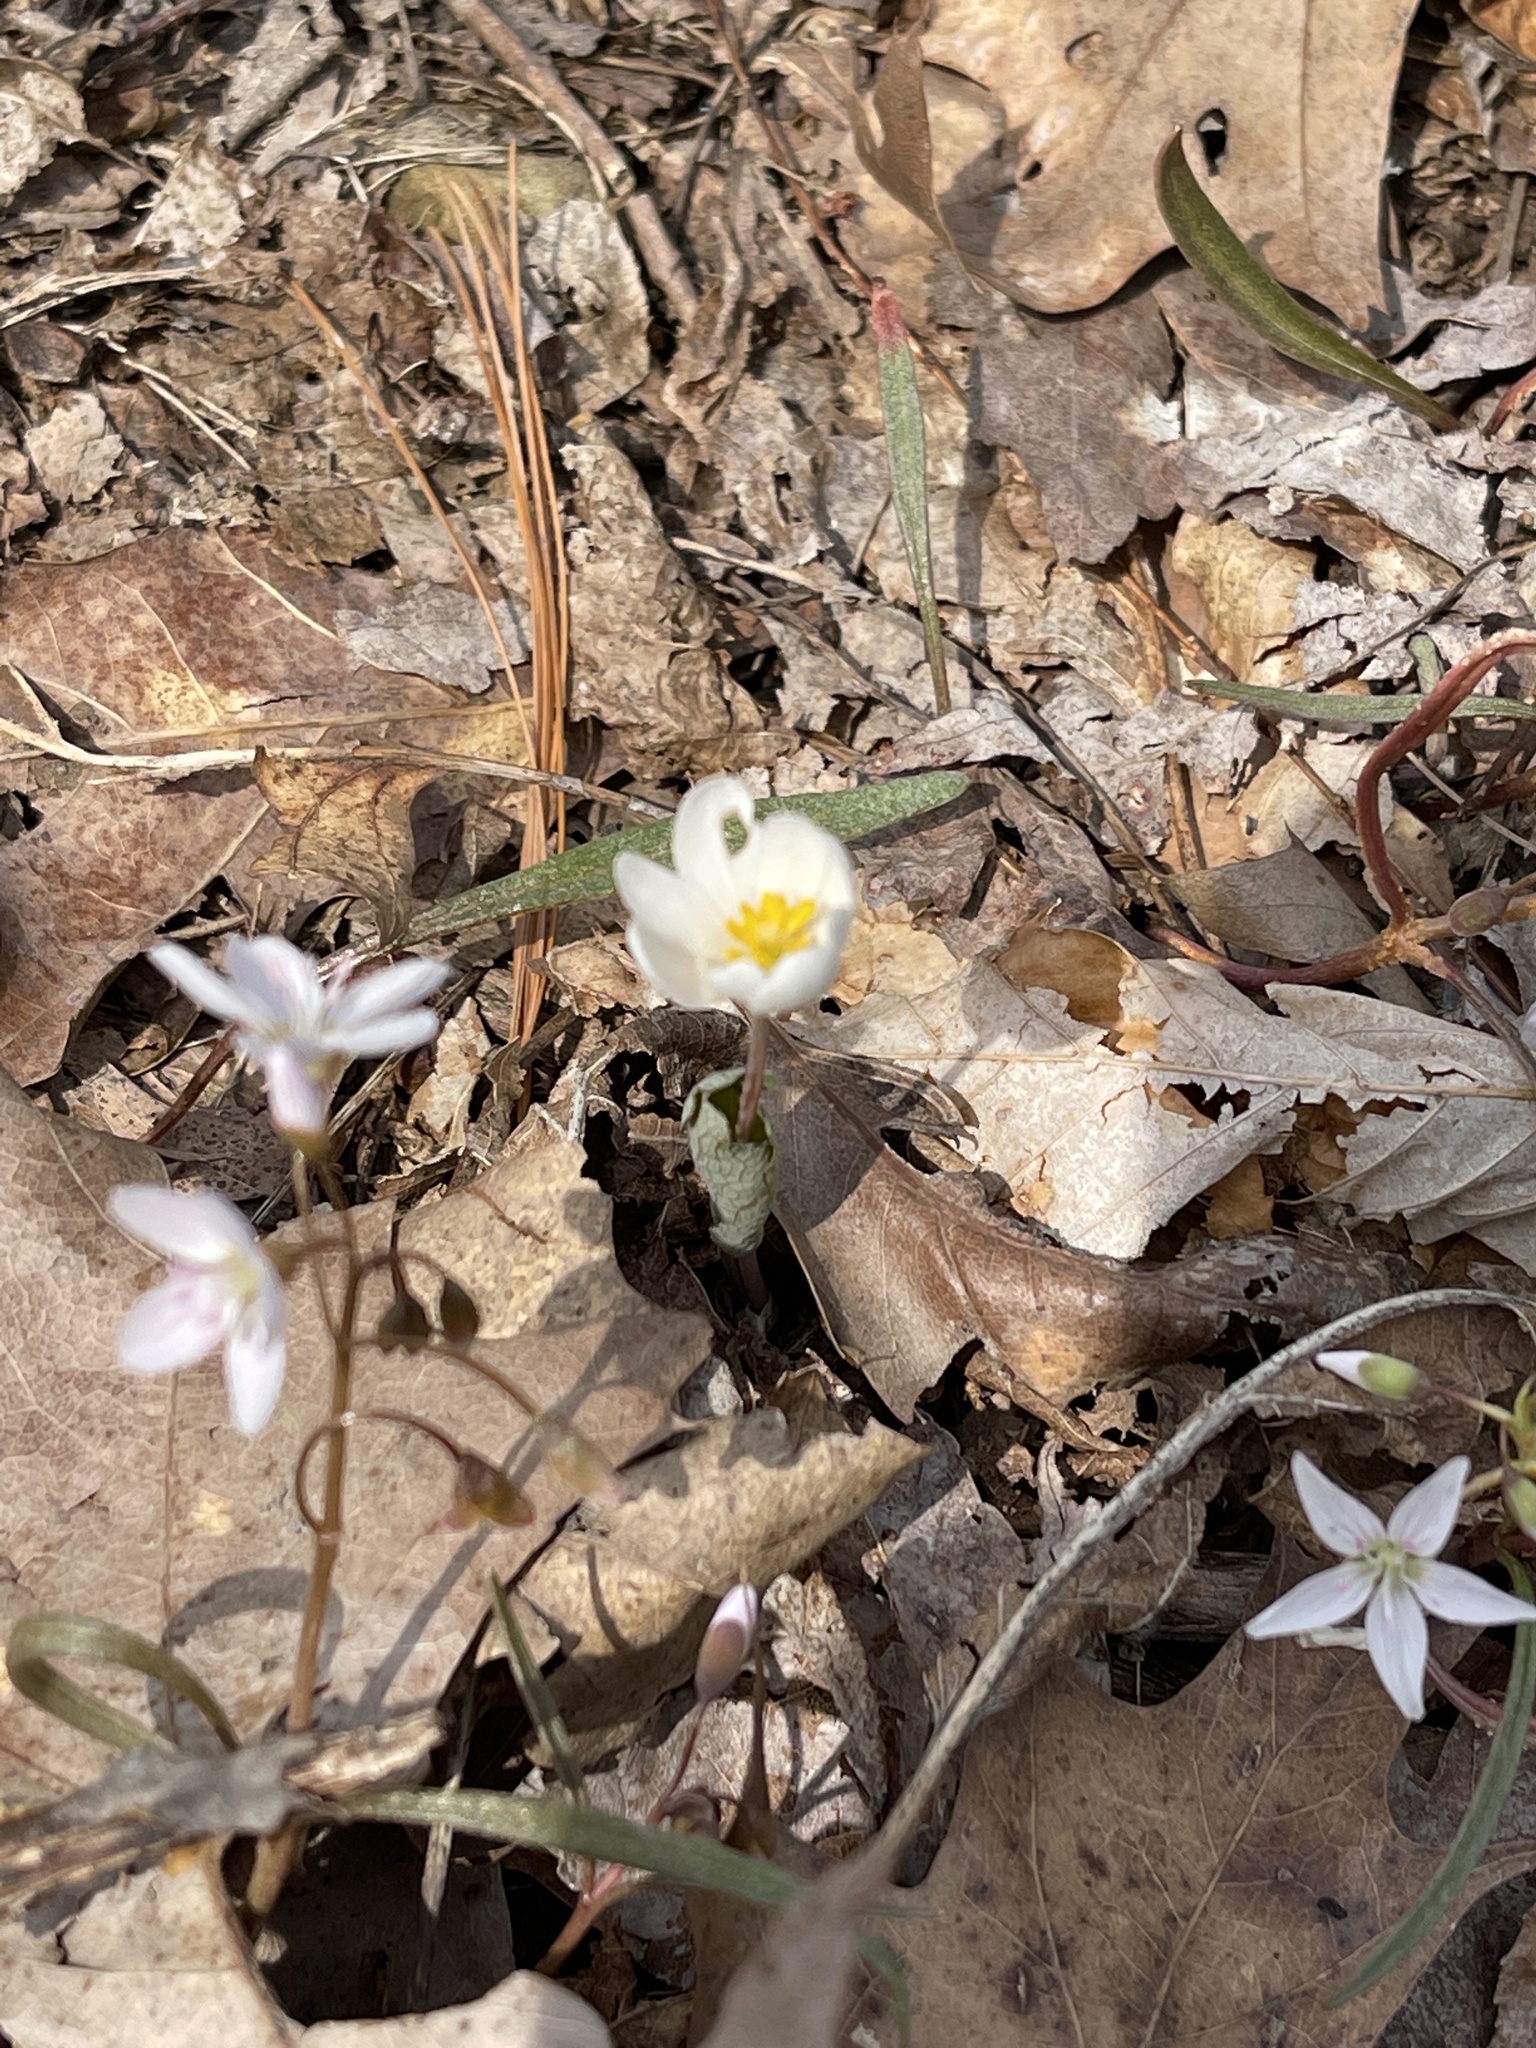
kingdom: Plantae
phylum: Tracheophyta
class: Magnoliopsida
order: Ranunculales
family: Papaveraceae
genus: Sanguinaria
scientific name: Sanguinaria canadensis
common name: Bloodroot
